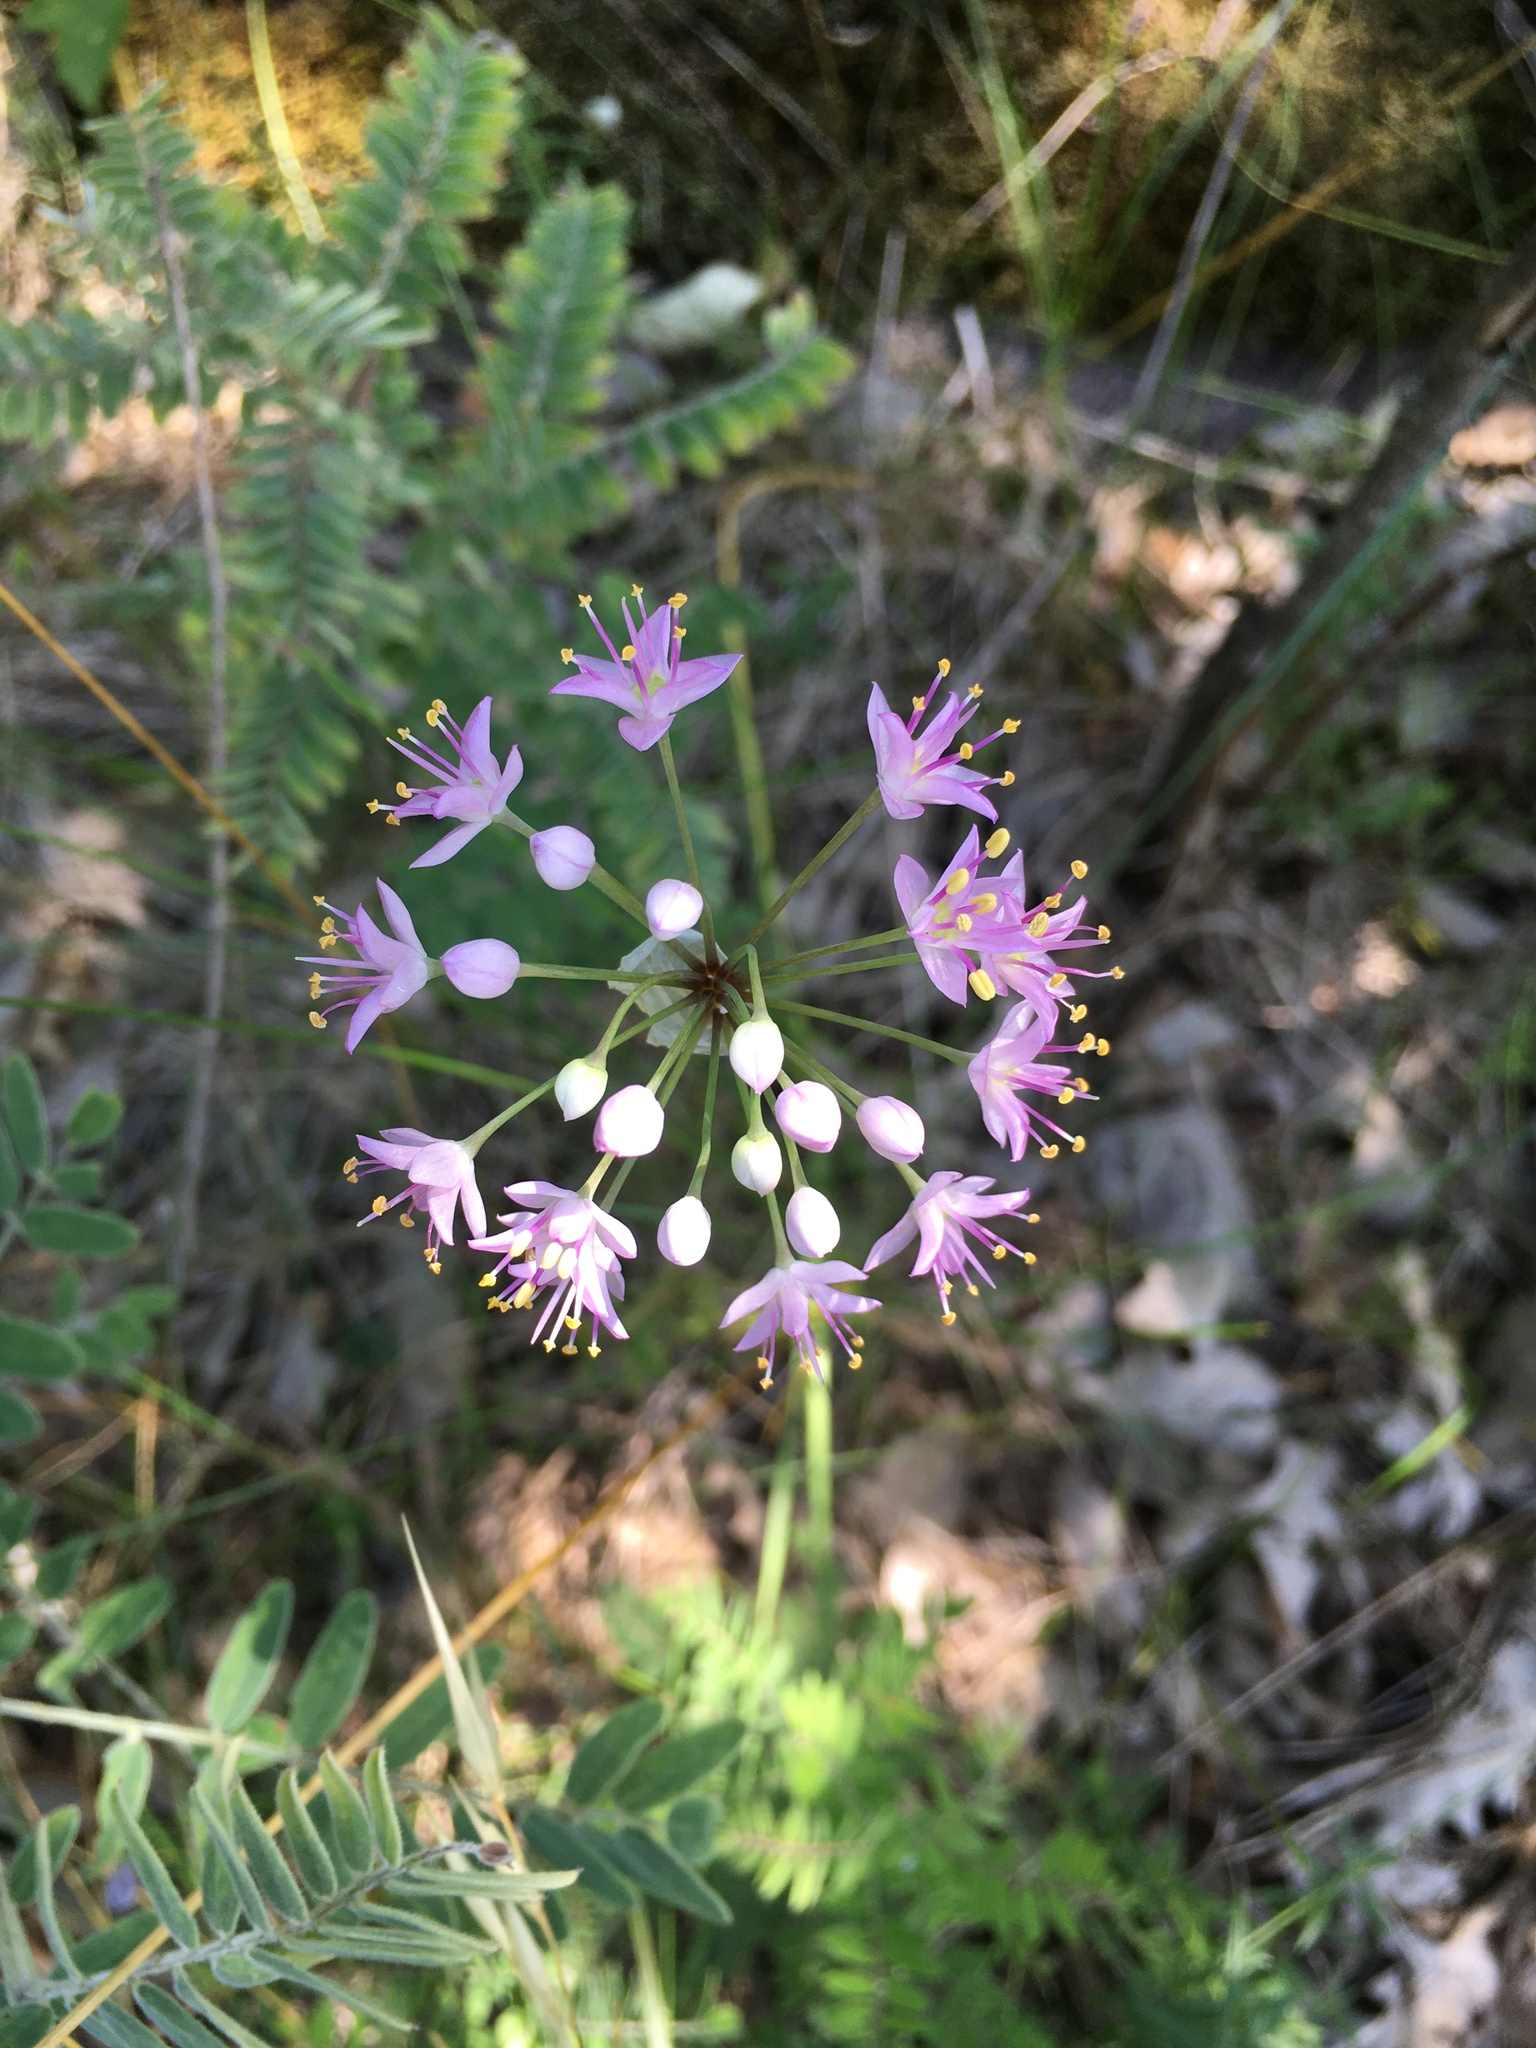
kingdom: Plantae
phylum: Tracheophyta
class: Liliopsida
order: Asparagales
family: Amaryllidaceae
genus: Allium
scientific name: Allium stellatum
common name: Autumn onion
